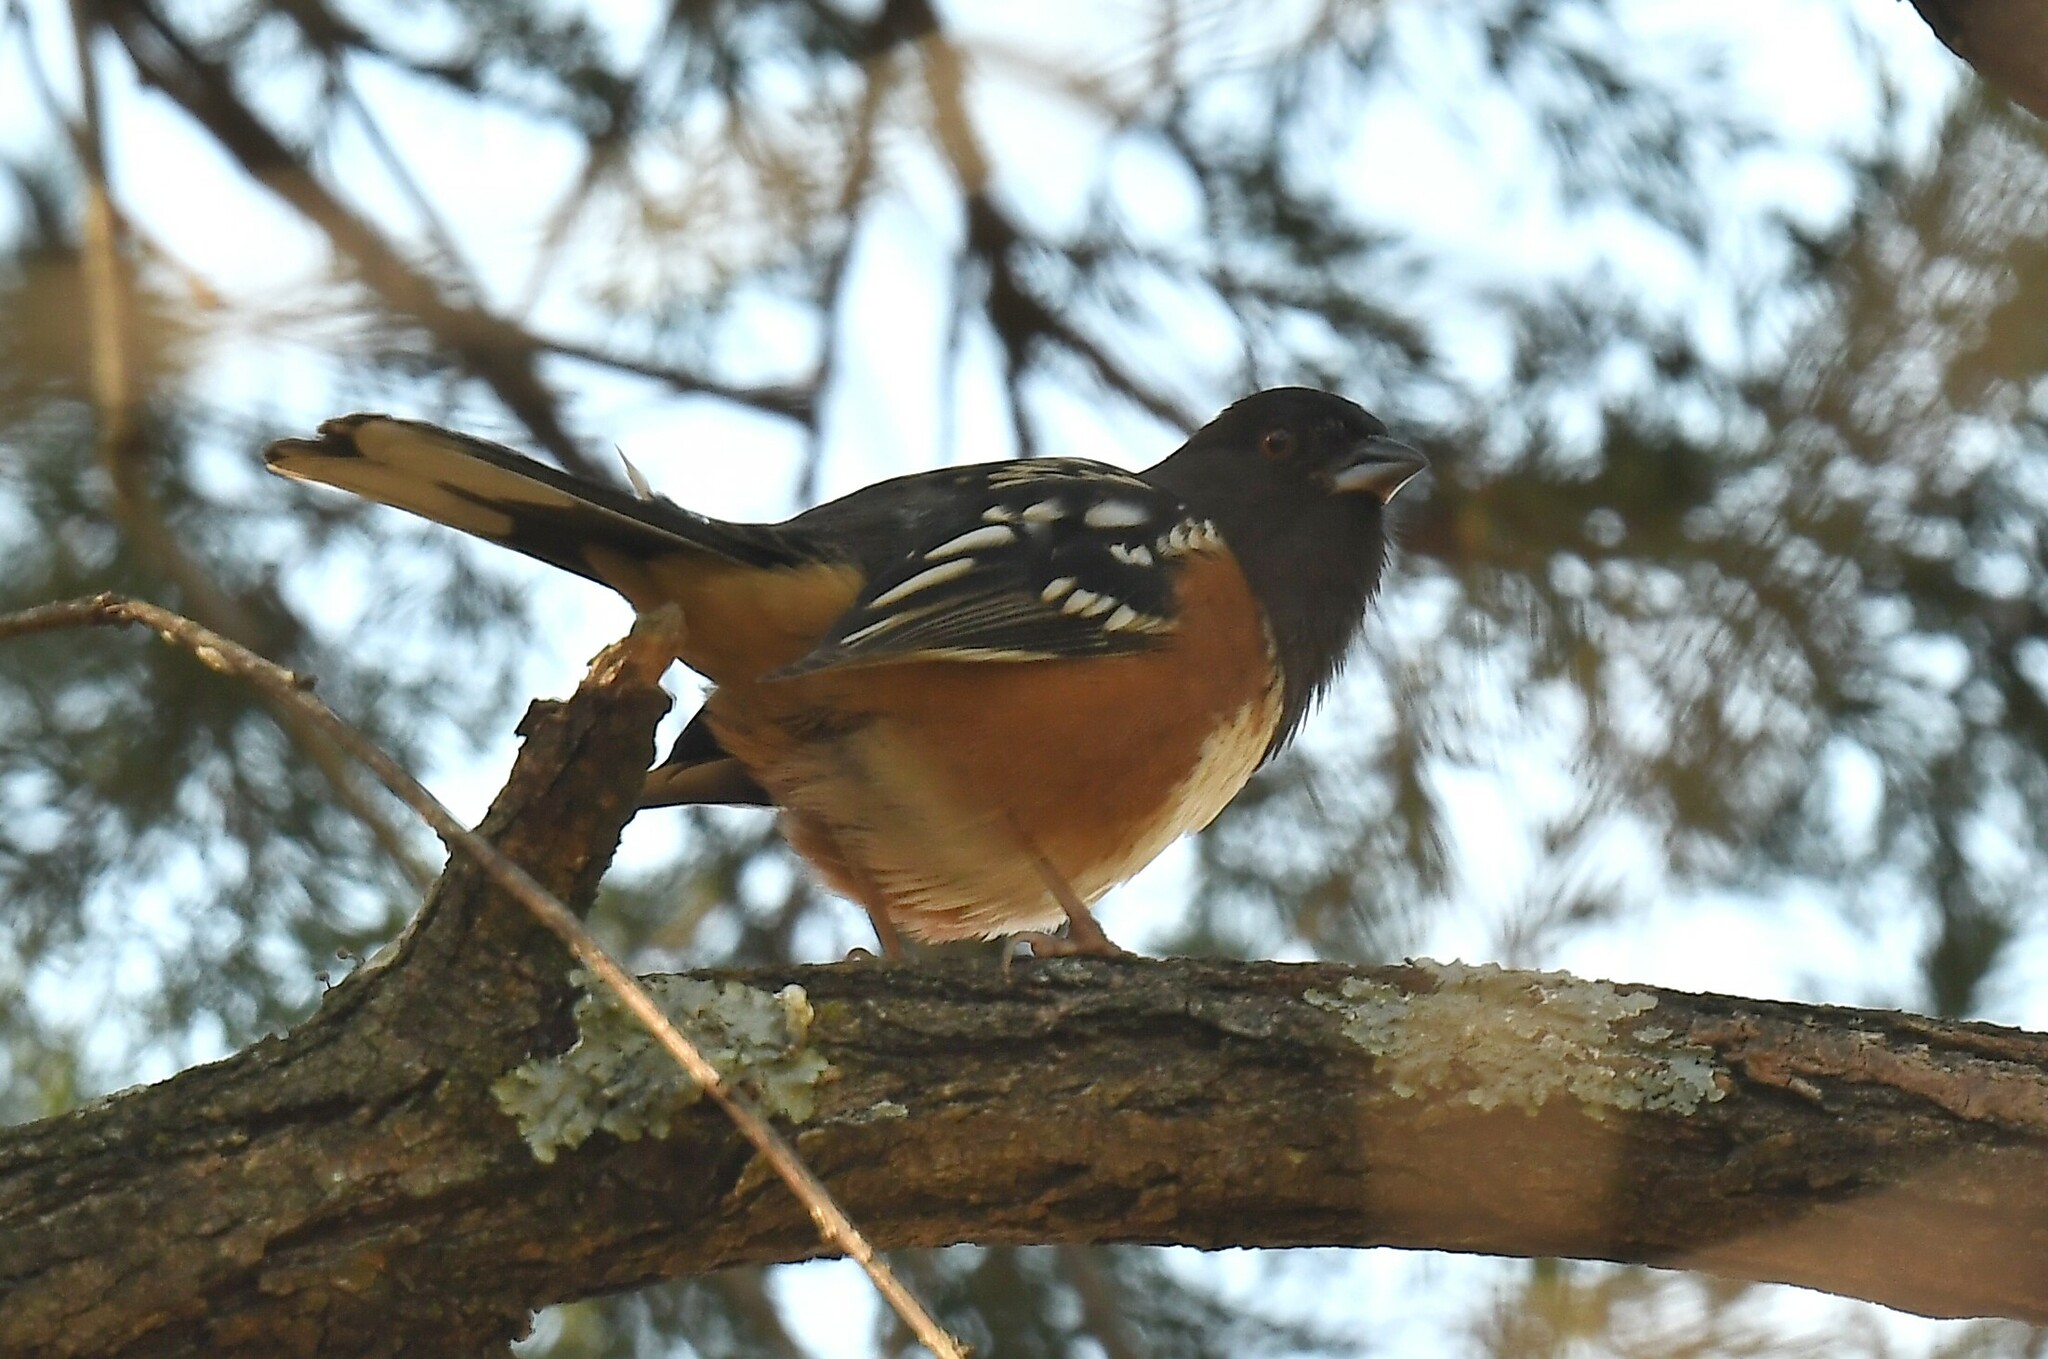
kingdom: Animalia
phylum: Chordata
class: Aves
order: Passeriformes
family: Passerellidae
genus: Pipilo
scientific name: Pipilo maculatus
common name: Spotted towhee
